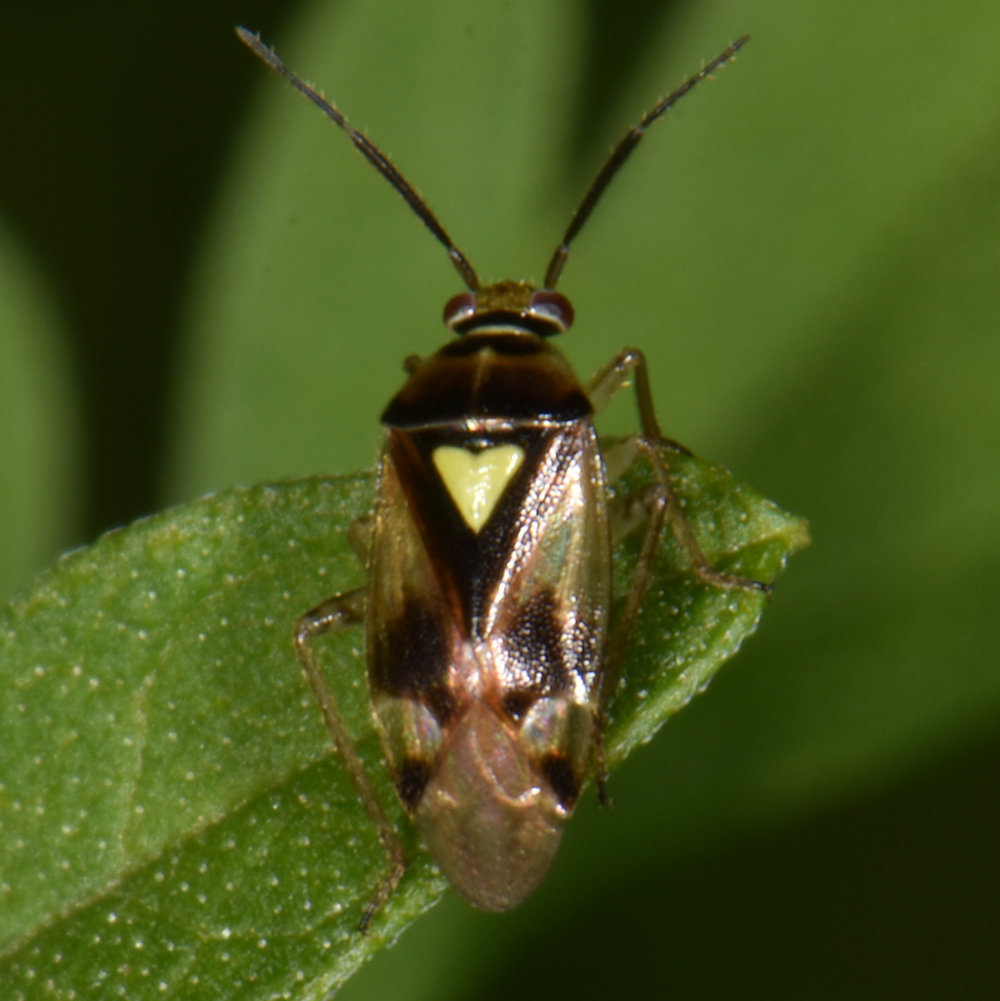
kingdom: Animalia
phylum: Arthropoda
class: Insecta
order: Hemiptera
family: Miridae
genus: Orthops
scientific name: Orthops scutellatus
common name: Plant bug
